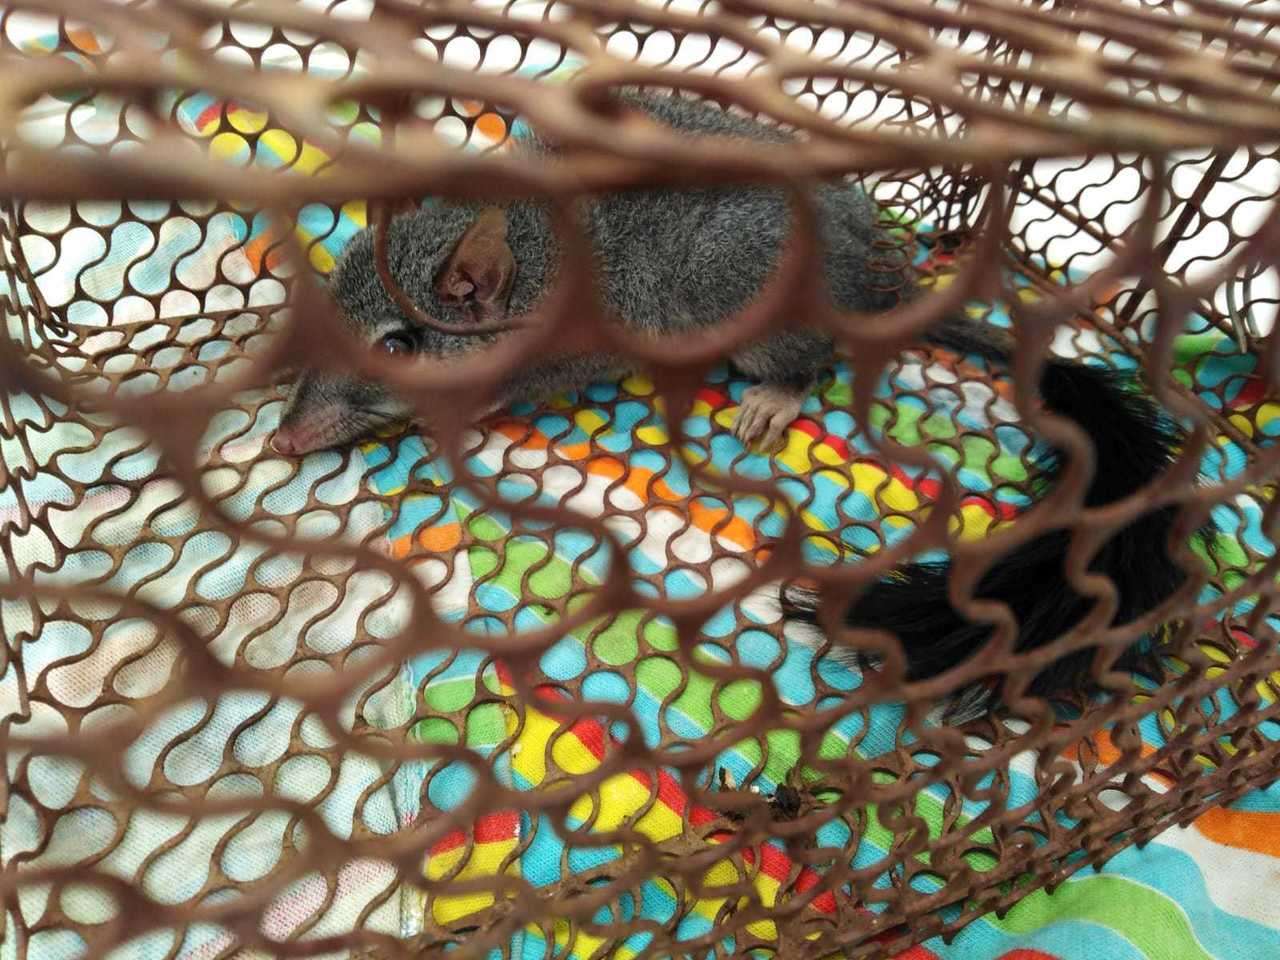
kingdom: Animalia
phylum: Chordata
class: Mammalia
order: Dasyuromorphia
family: Dasyuridae
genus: Phascogale
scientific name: Phascogale tapoatafa
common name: Brush-tailed phascogale
